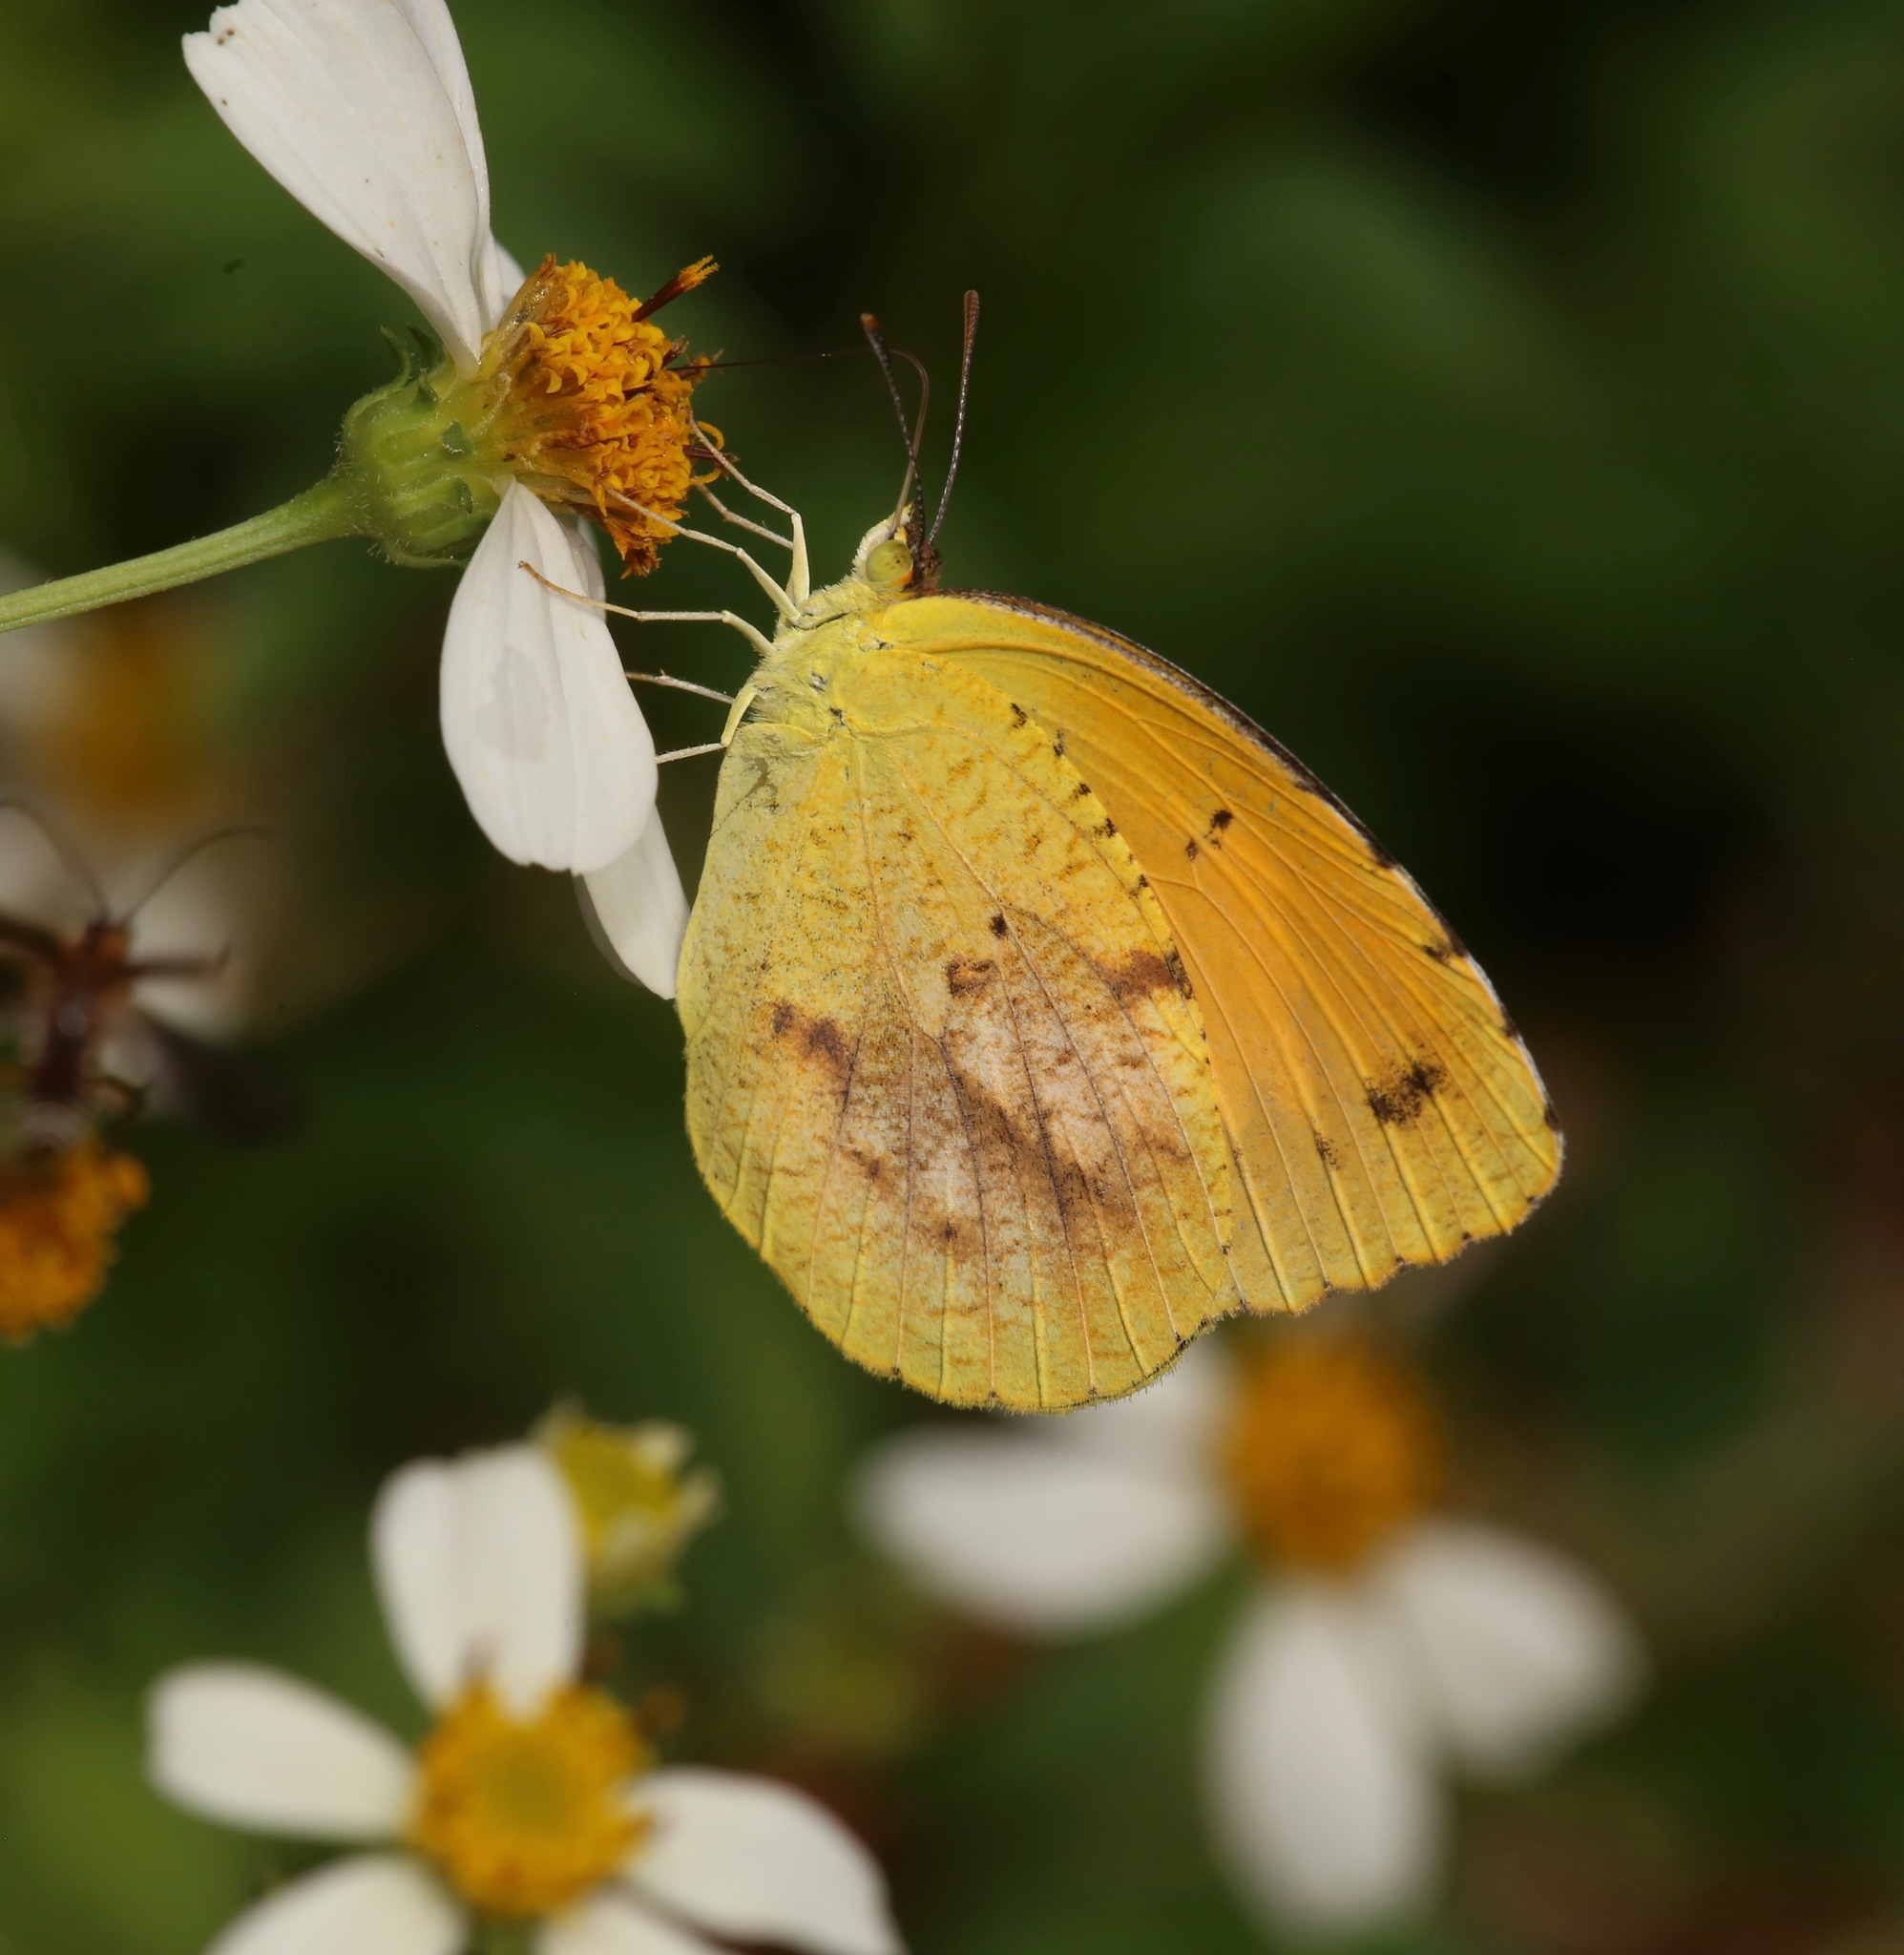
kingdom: Animalia
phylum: Arthropoda
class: Insecta
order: Lepidoptera
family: Pieridae
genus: Abaeis
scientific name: Abaeis nicippe
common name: Sleepy orange
